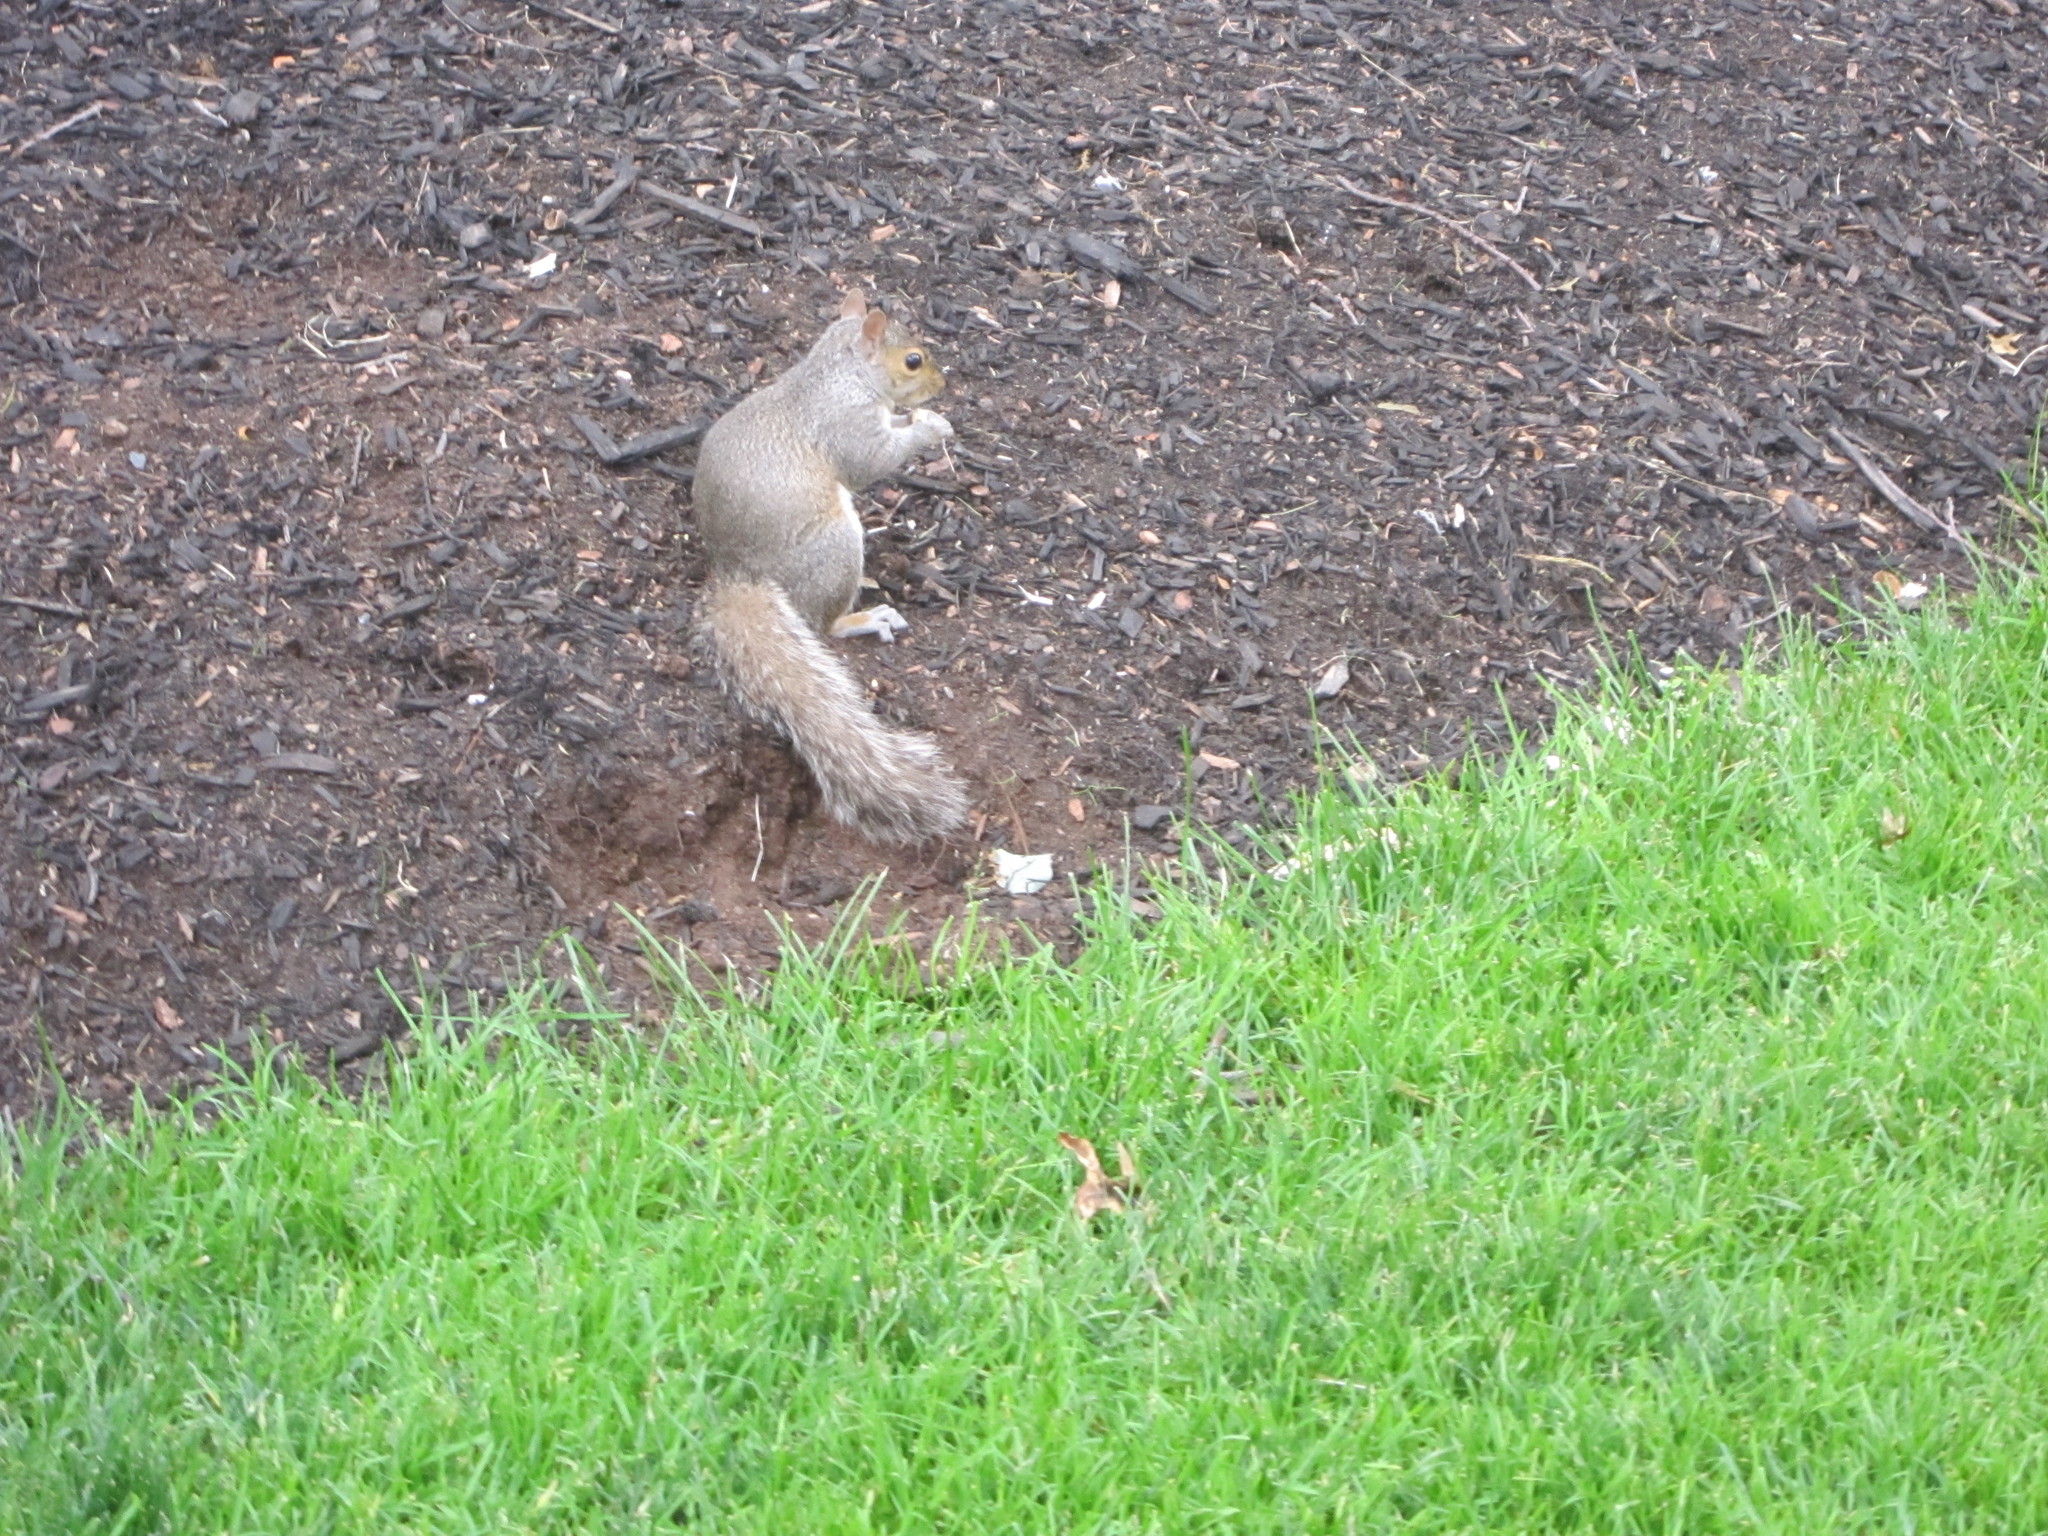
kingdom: Animalia
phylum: Chordata
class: Mammalia
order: Rodentia
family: Sciuridae
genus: Sciurus
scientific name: Sciurus carolinensis
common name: Eastern gray squirrel
